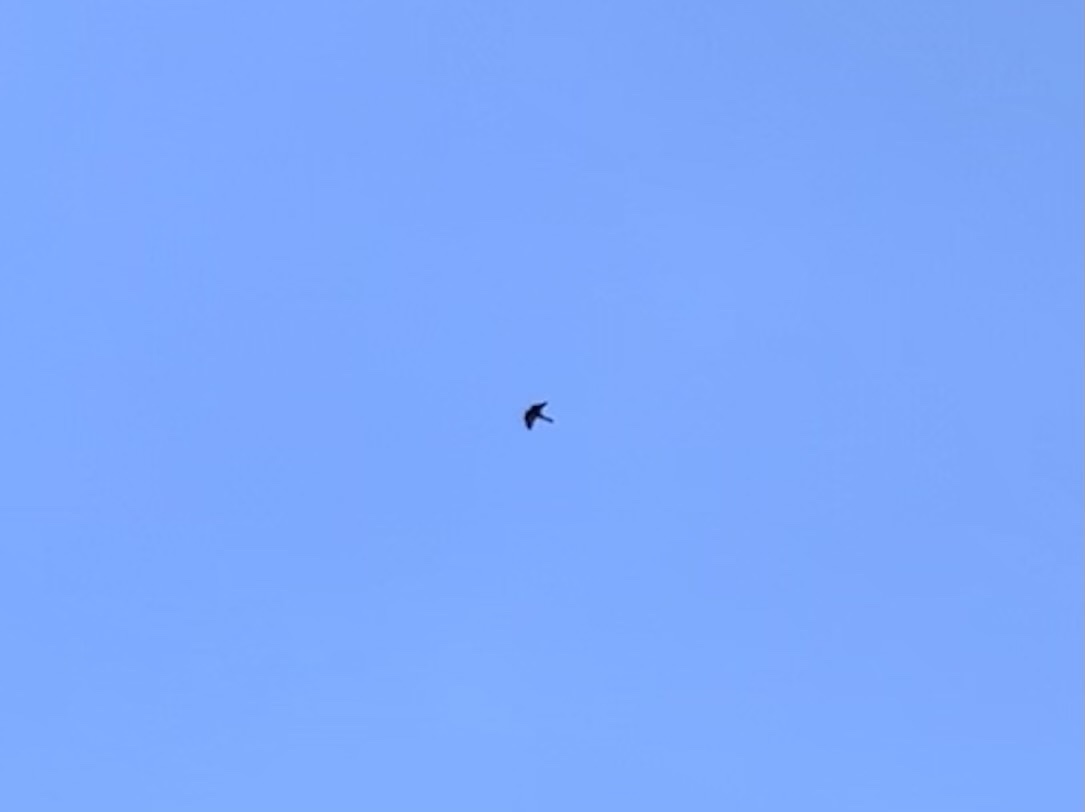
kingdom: Animalia
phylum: Chordata
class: Aves
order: Falconiformes
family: Falconidae
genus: Falco
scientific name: Falco eleonorae
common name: Eleonora's falcon
